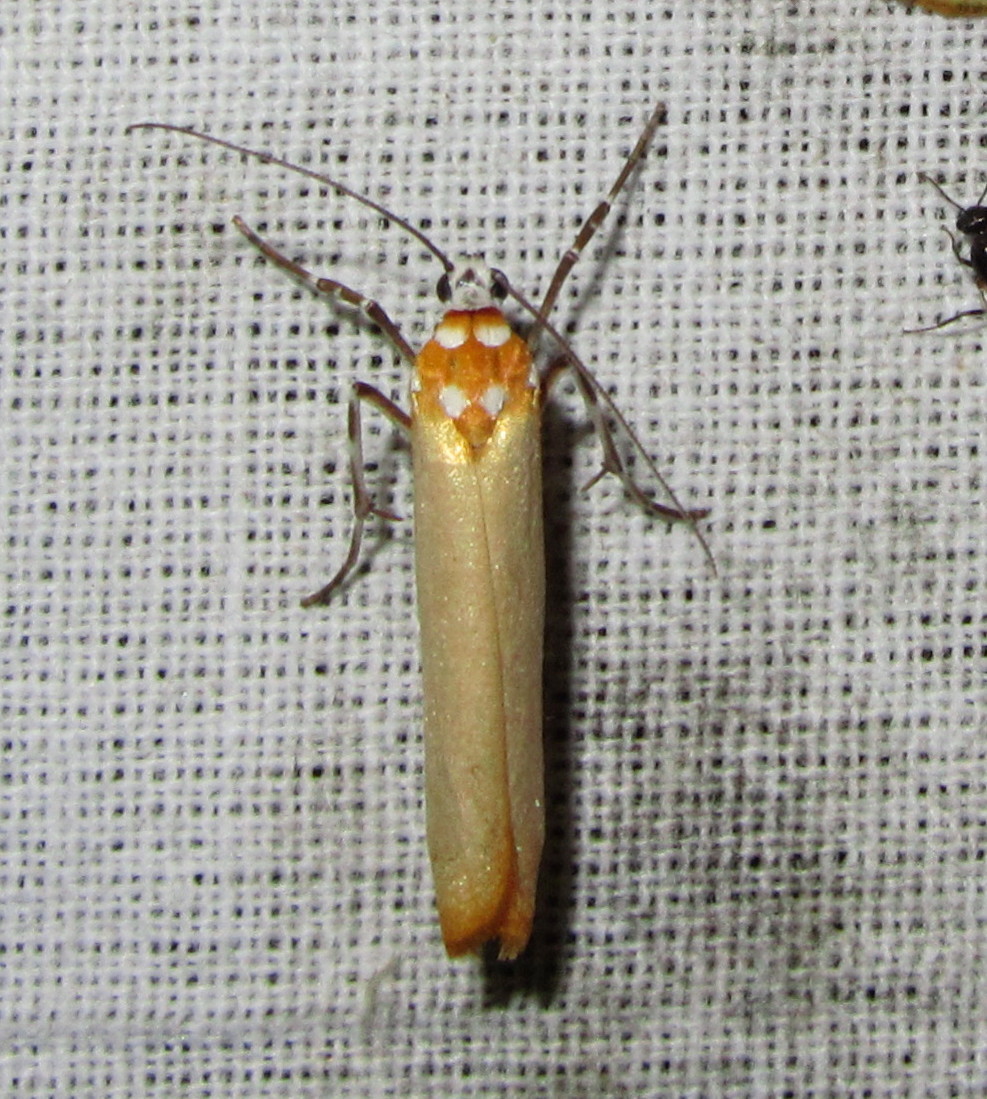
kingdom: Animalia
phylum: Arthropoda
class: Insecta
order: Lepidoptera
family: Attevidae
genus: Atteva
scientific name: Atteva subaurata
